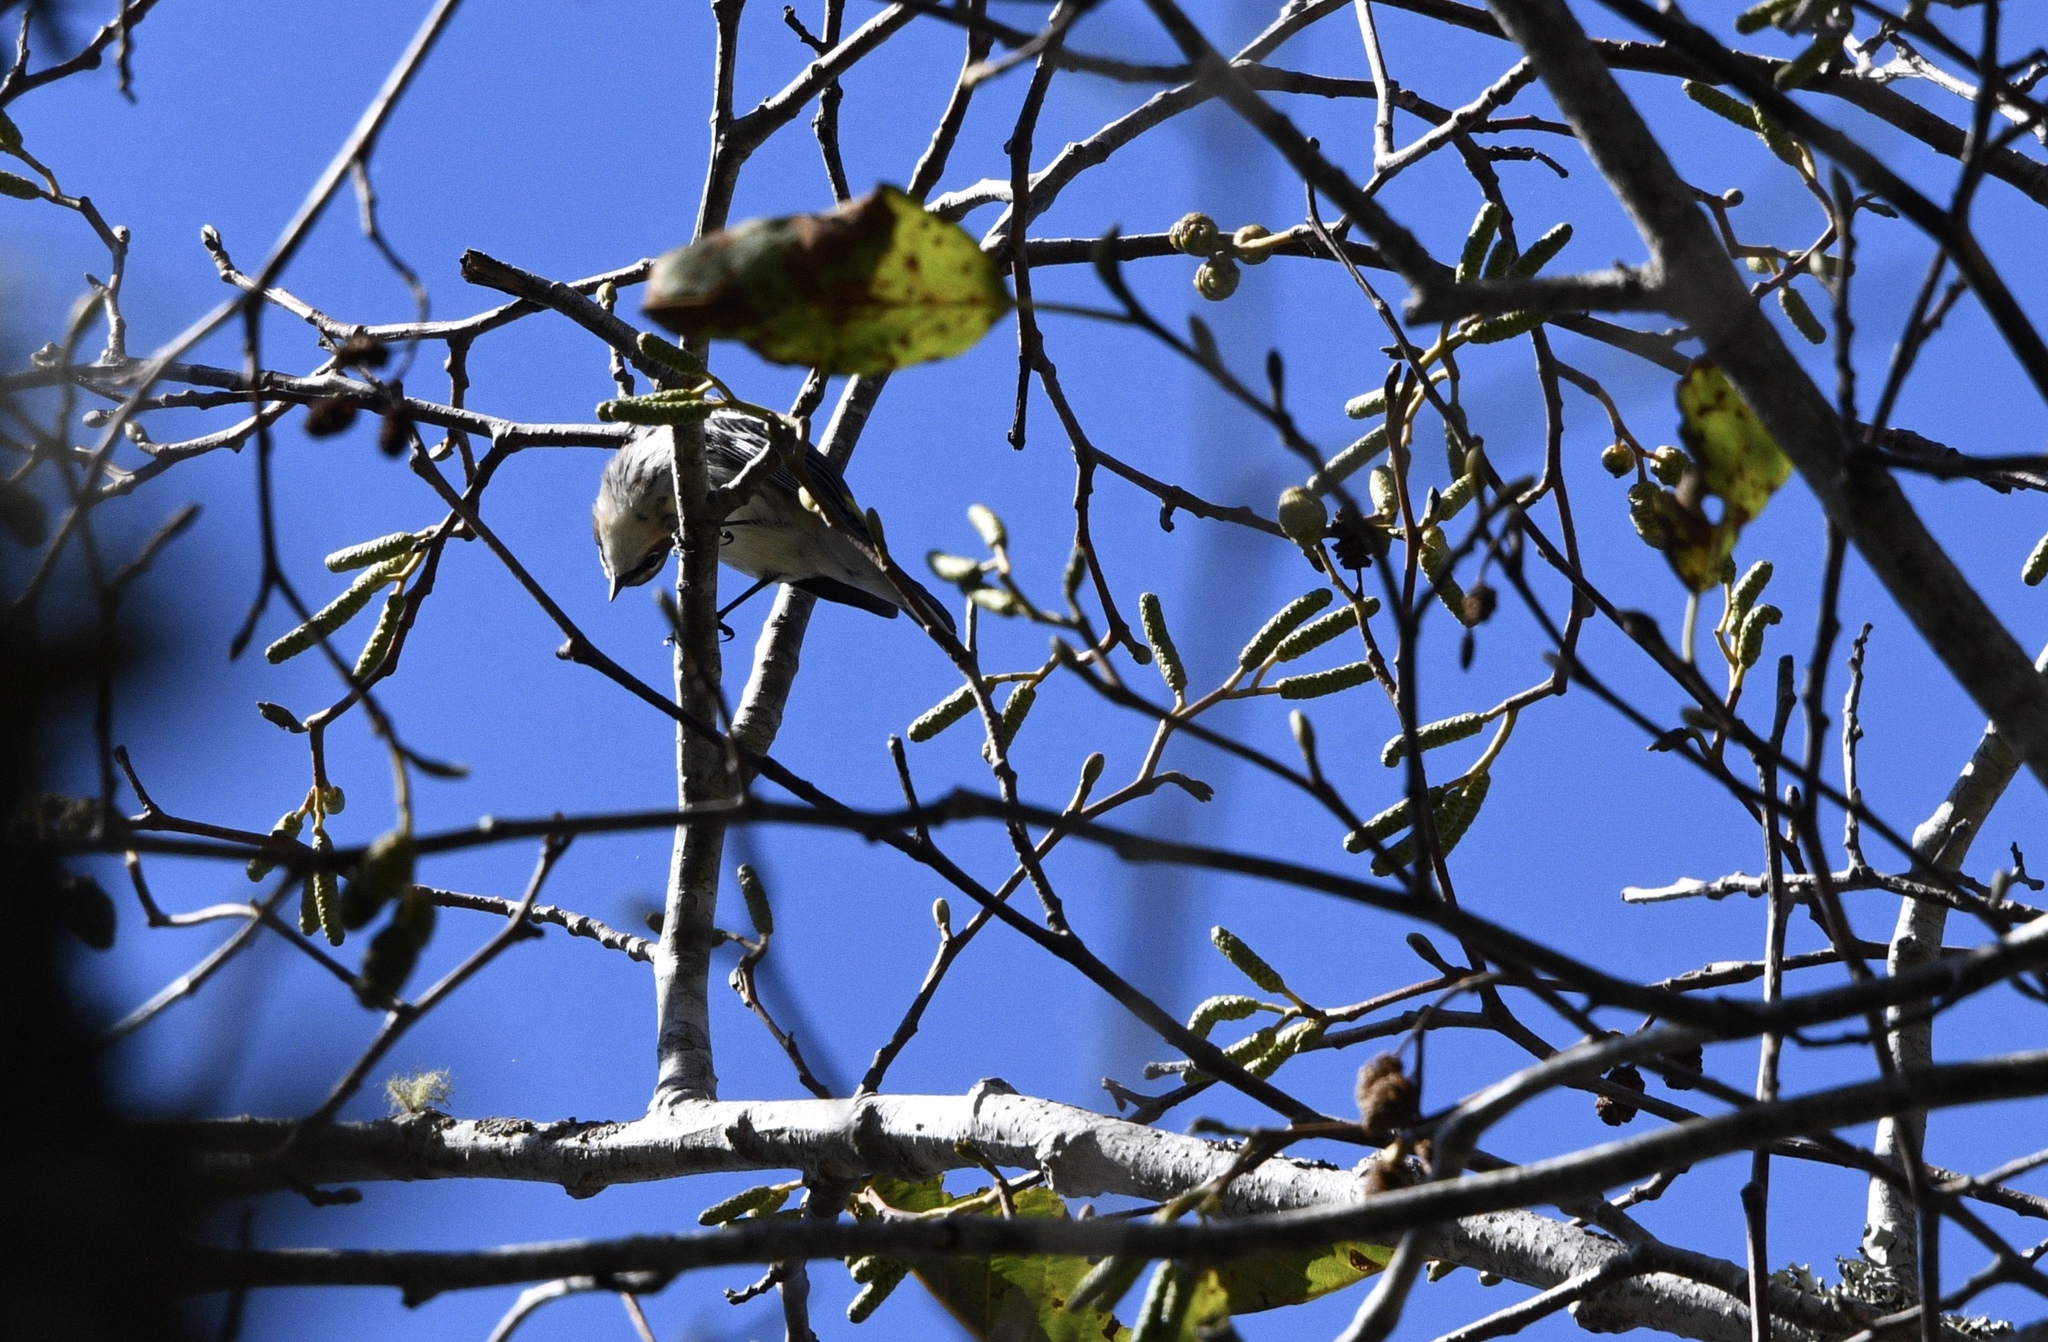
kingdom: Animalia
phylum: Chordata
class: Aves
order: Passeriformes
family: Parulidae
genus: Setophaga
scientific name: Setophaga coronata
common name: Myrtle warbler
